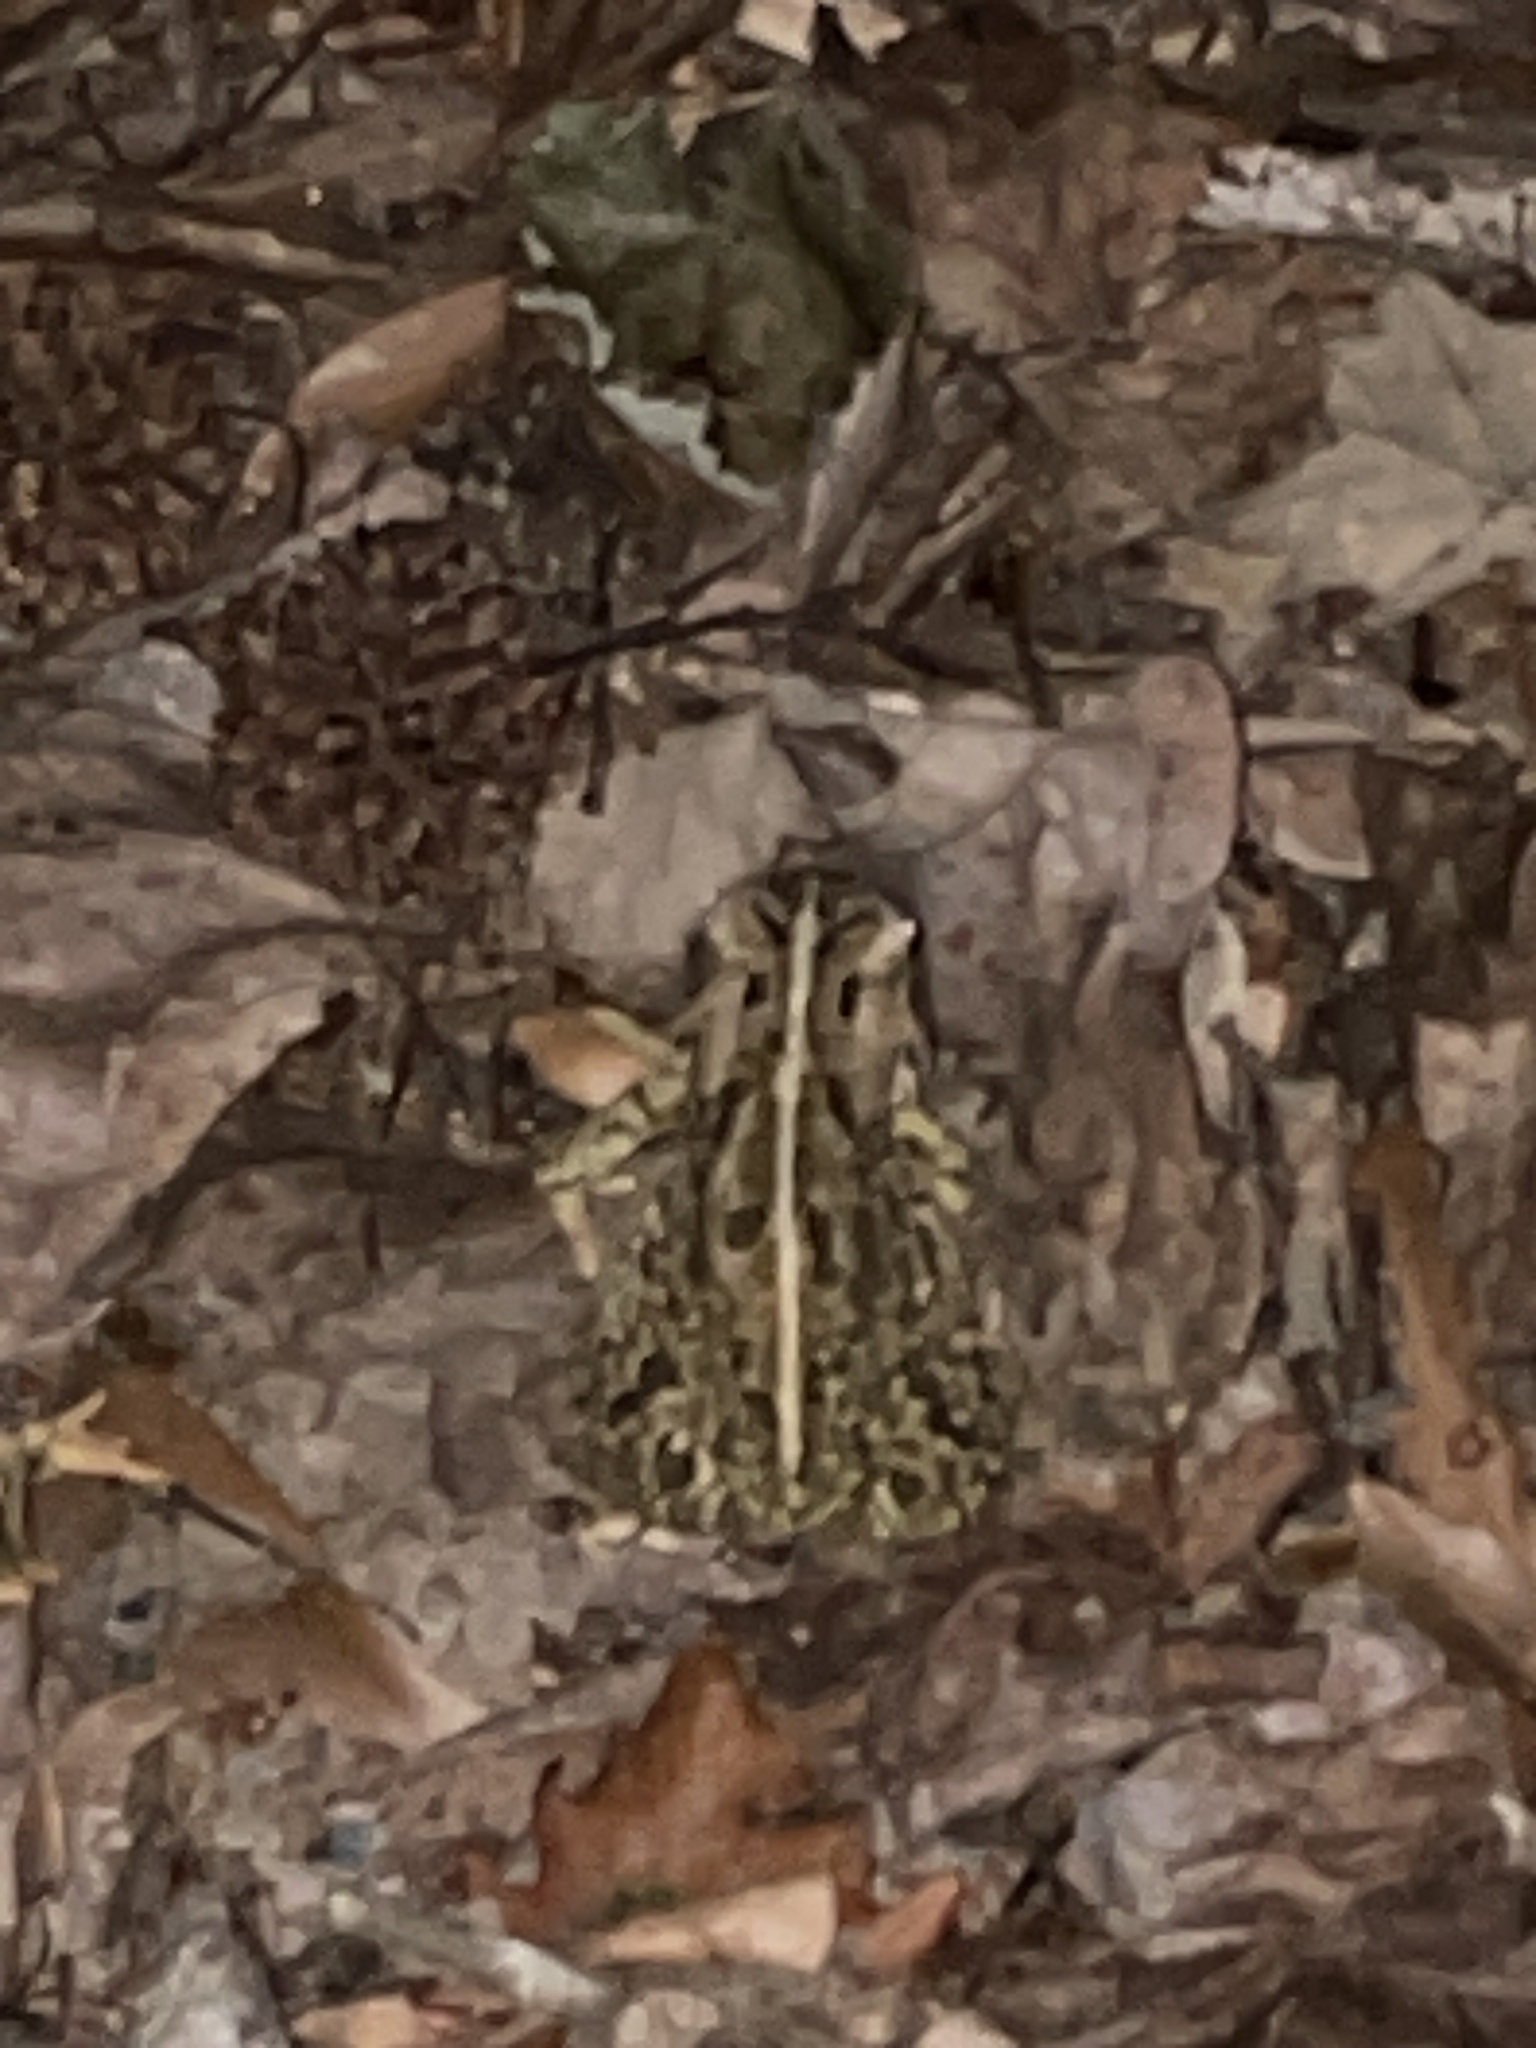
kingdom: Animalia
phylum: Chordata
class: Amphibia
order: Anura
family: Bufonidae
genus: Anaxyrus
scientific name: Anaxyrus fowleri
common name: Fowler's toad
